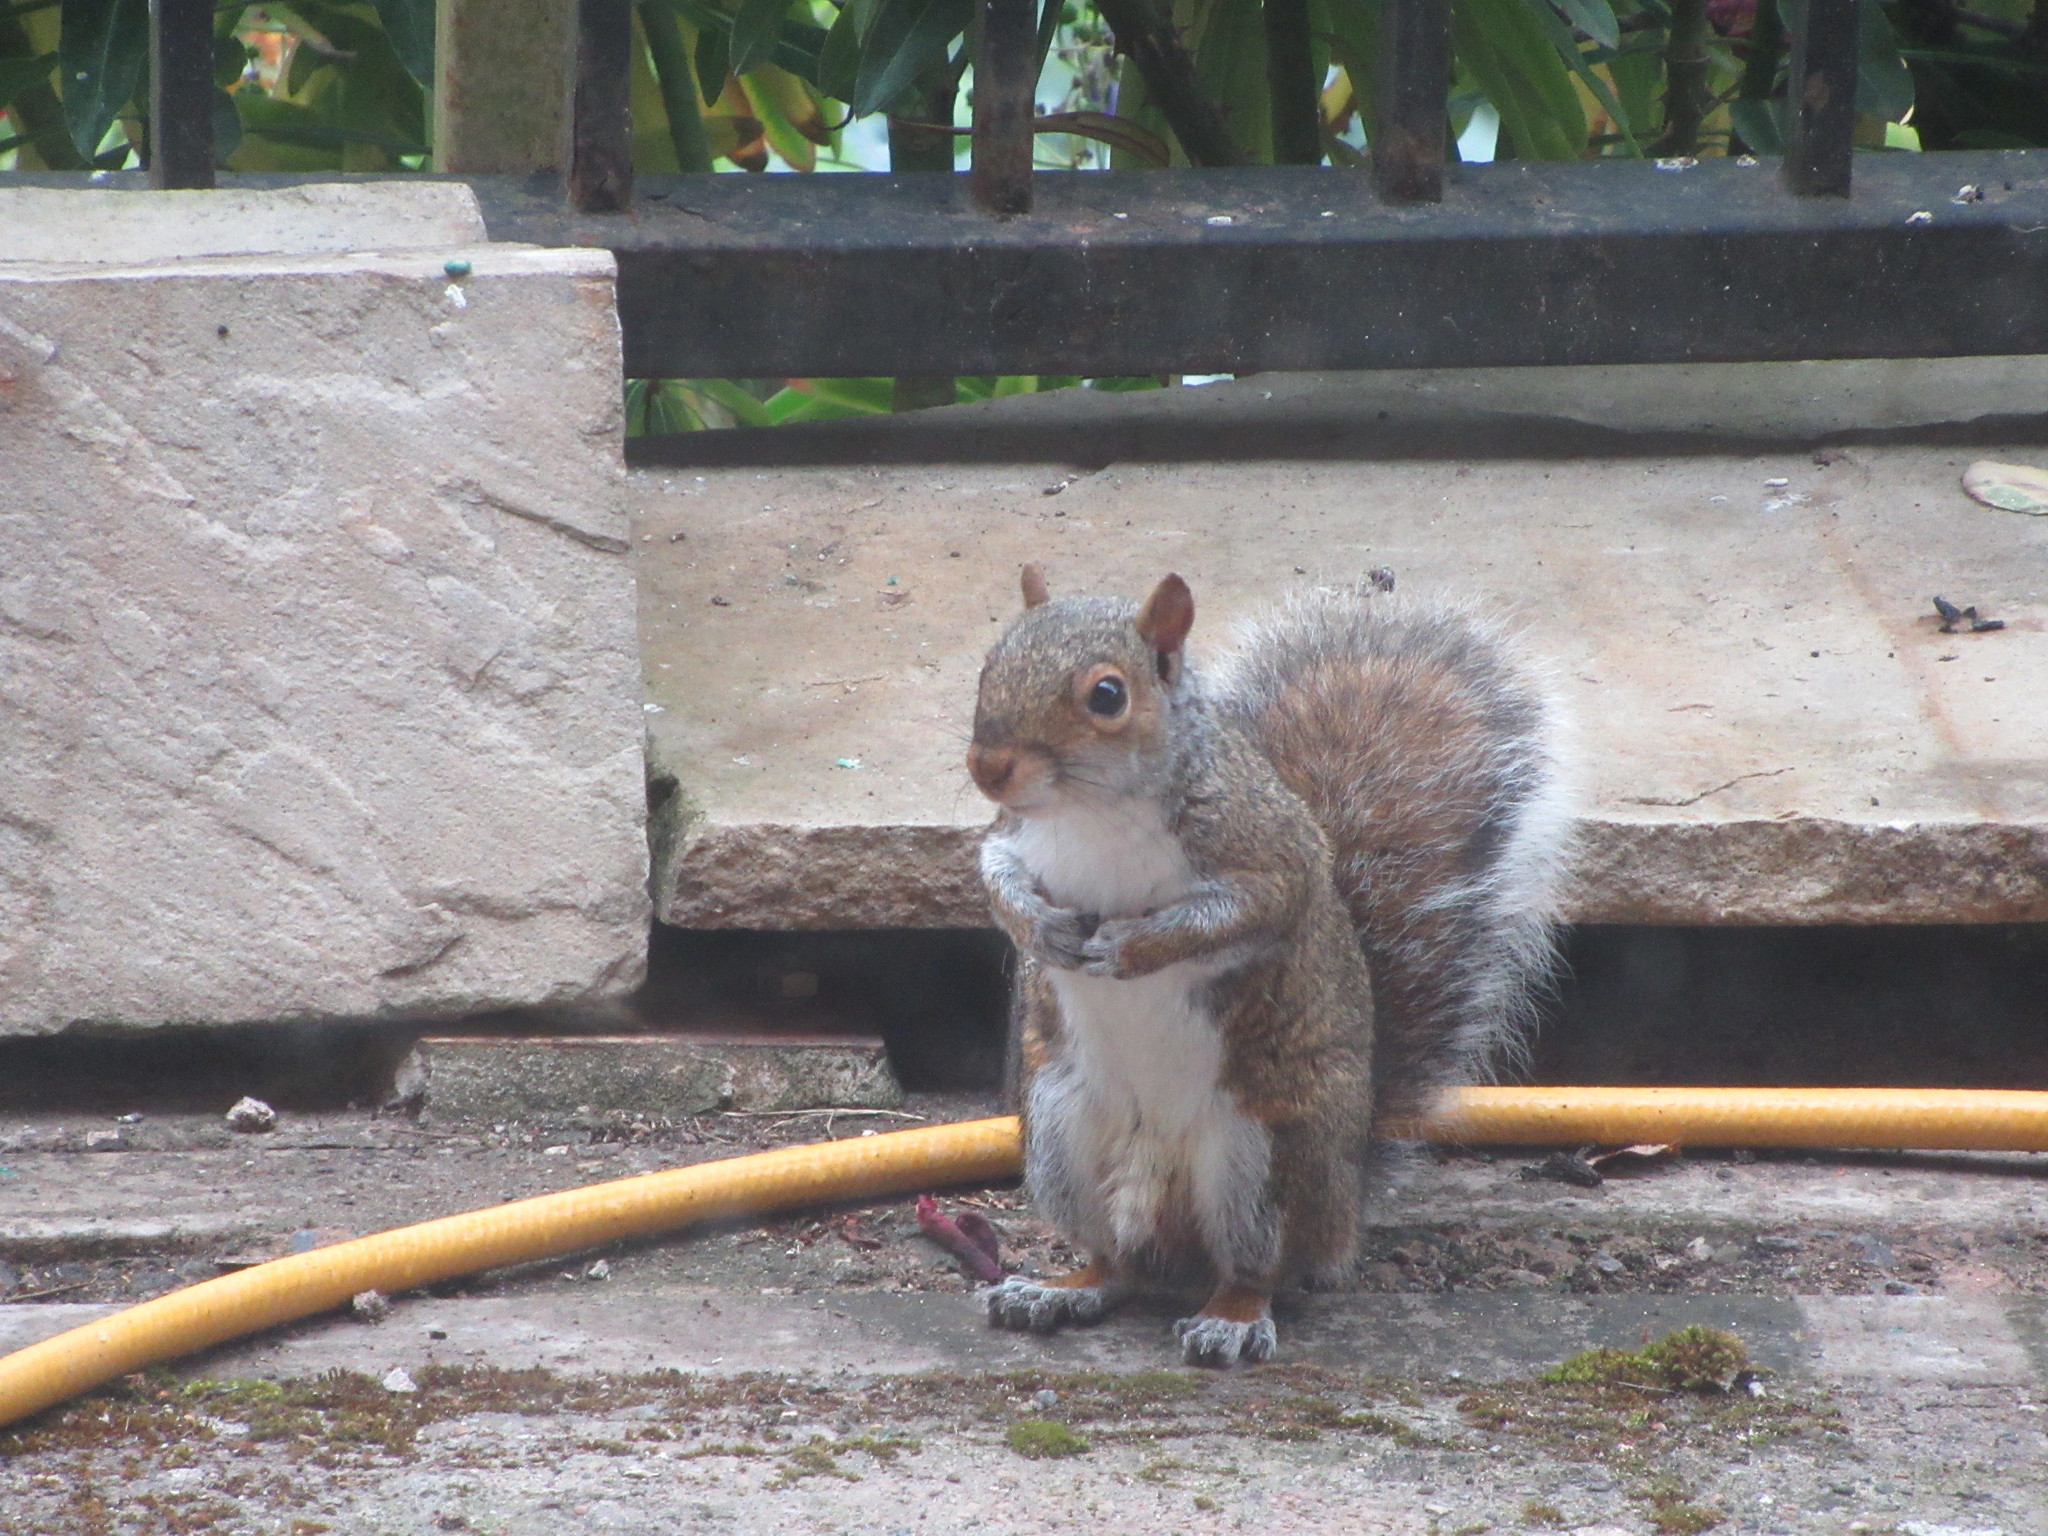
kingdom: Animalia
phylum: Chordata
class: Mammalia
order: Rodentia
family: Sciuridae
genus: Sciurus
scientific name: Sciurus carolinensis
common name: Eastern gray squirrel
